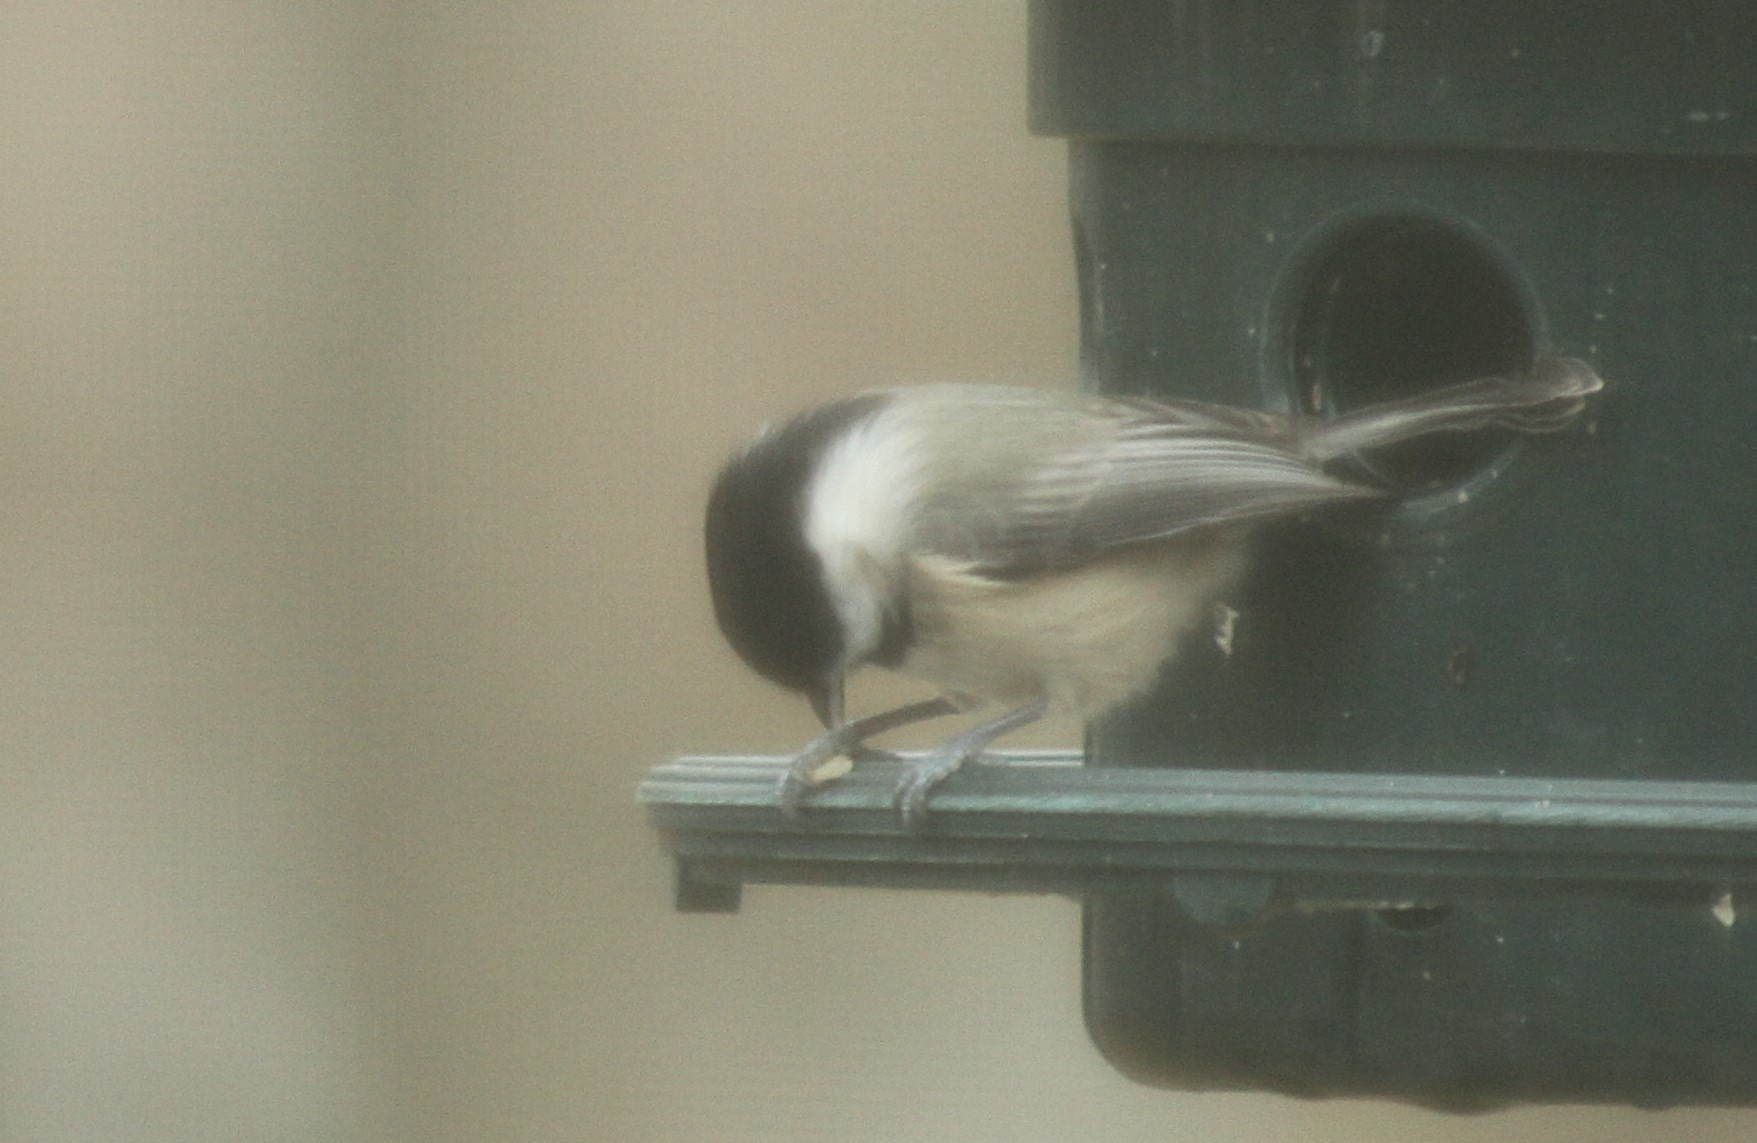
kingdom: Animalia
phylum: Chordata
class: Aves
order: Passeriformes
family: Paridae
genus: Poecile
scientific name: Poecile carolinensis
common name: Carolina chickadee
